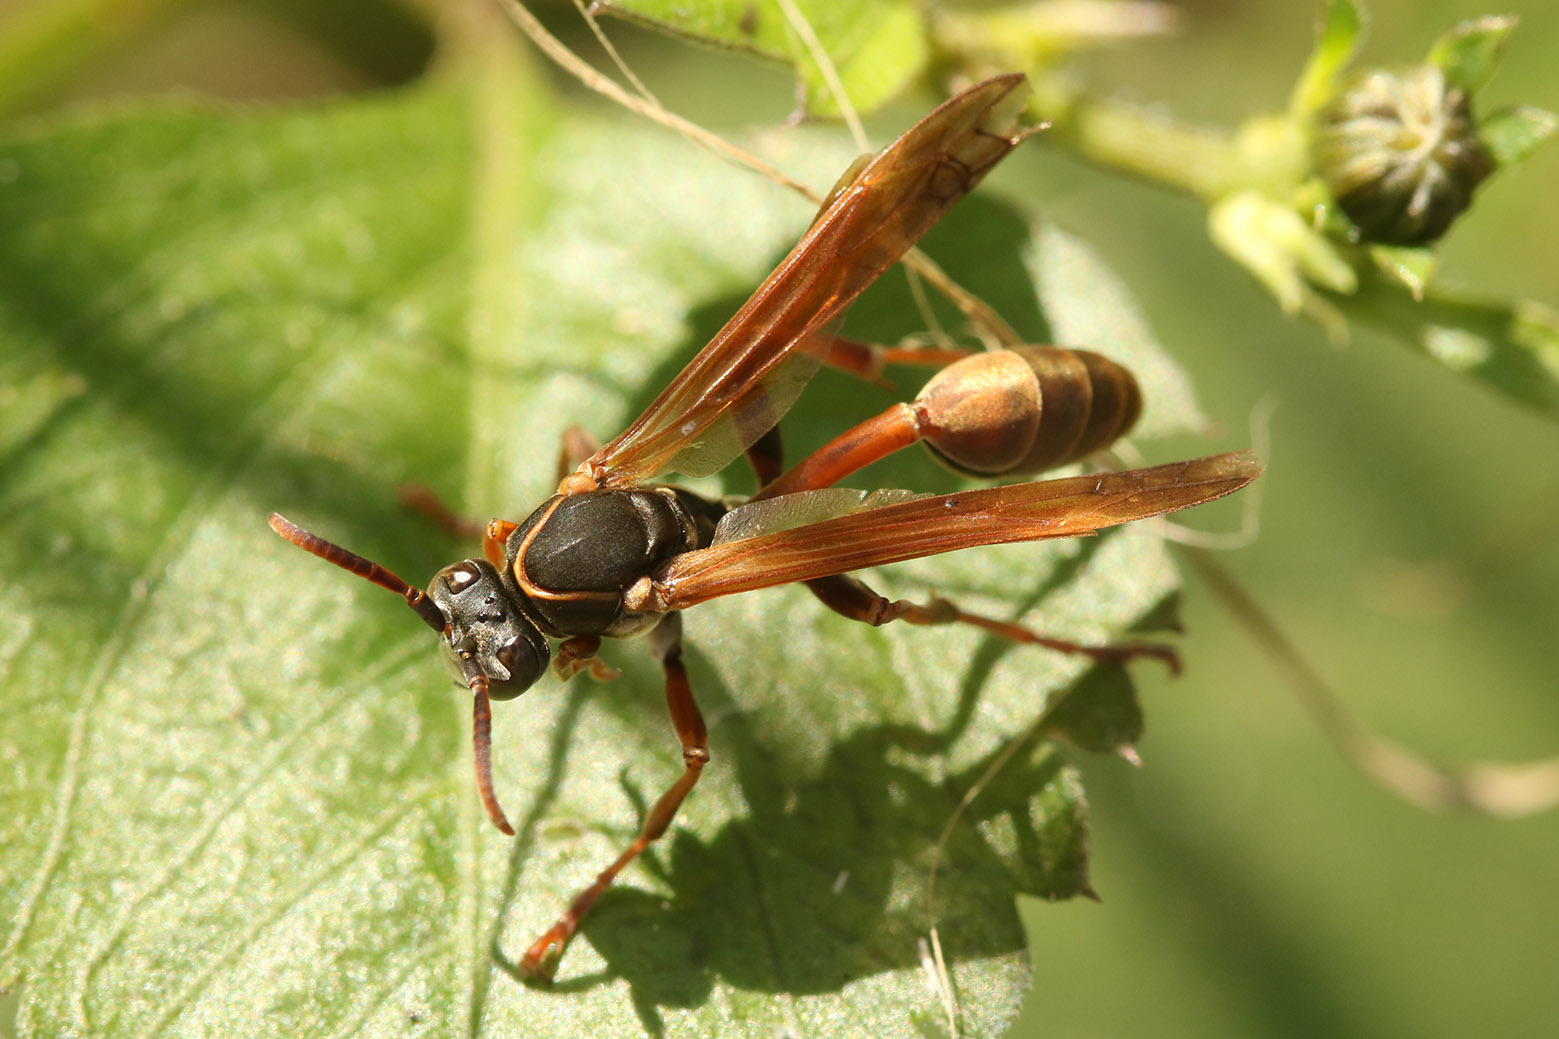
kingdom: Animalia
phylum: Arthropoda
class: Insecta
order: Hymenoptera
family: Vespidae
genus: Mischocyttarus
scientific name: Mischocyttarus drewseni
